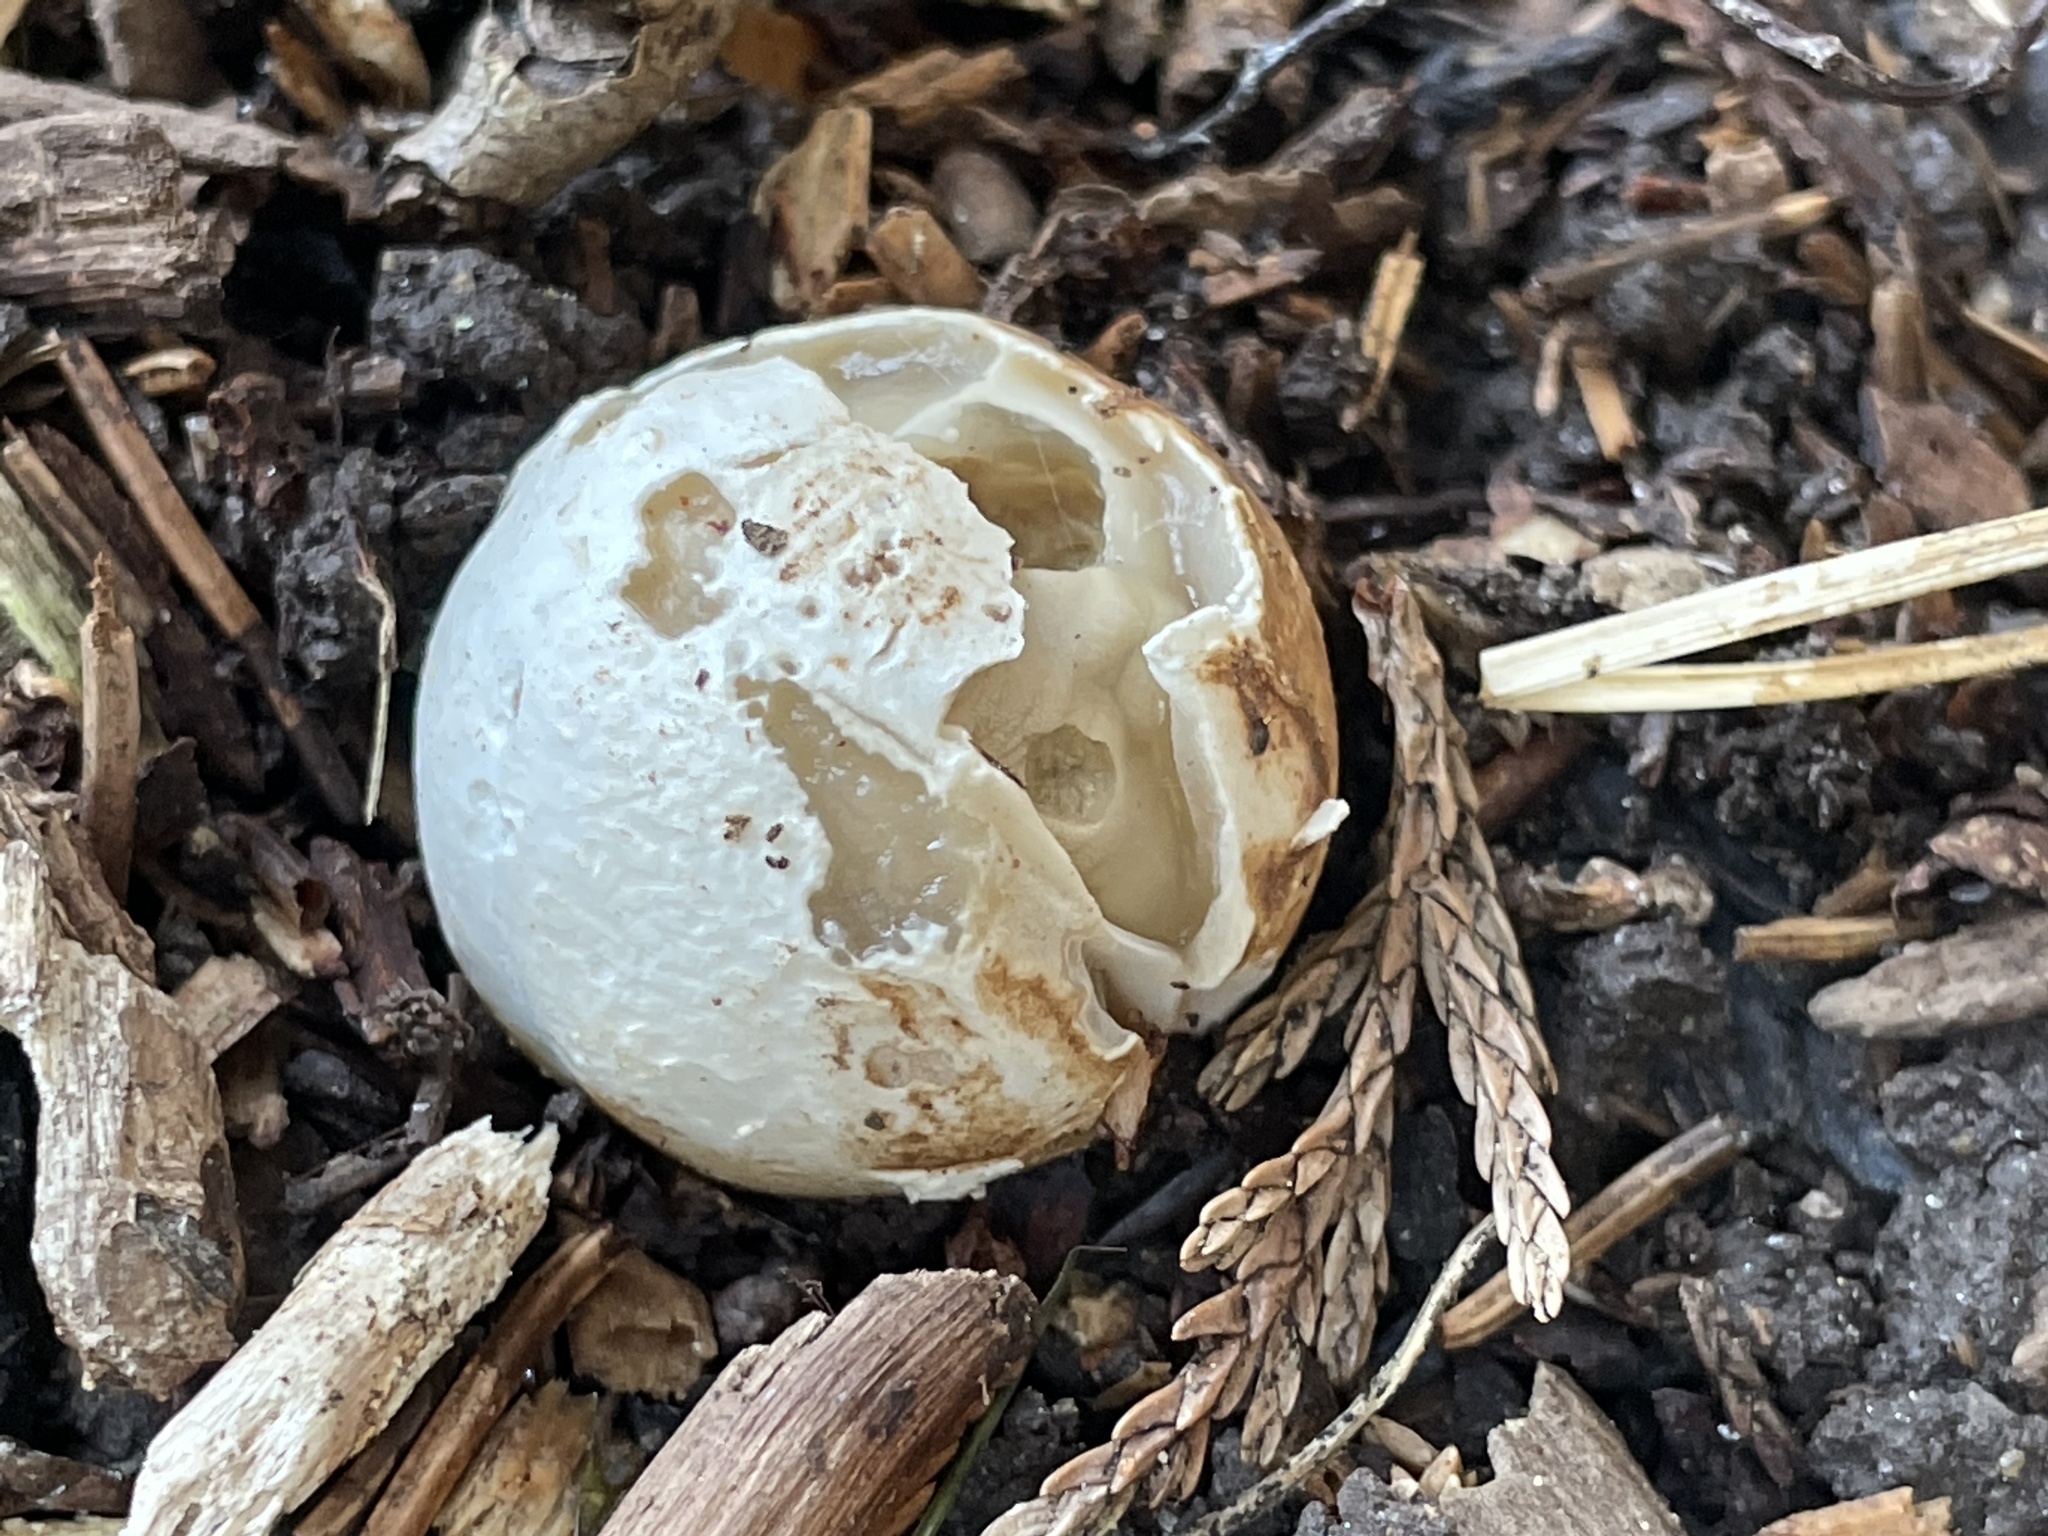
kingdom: Fungi
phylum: Basidiomycota
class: Agaricomycetes
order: Phallales
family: Phallaceae
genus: Lysurus
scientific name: Lysurus mokusin
